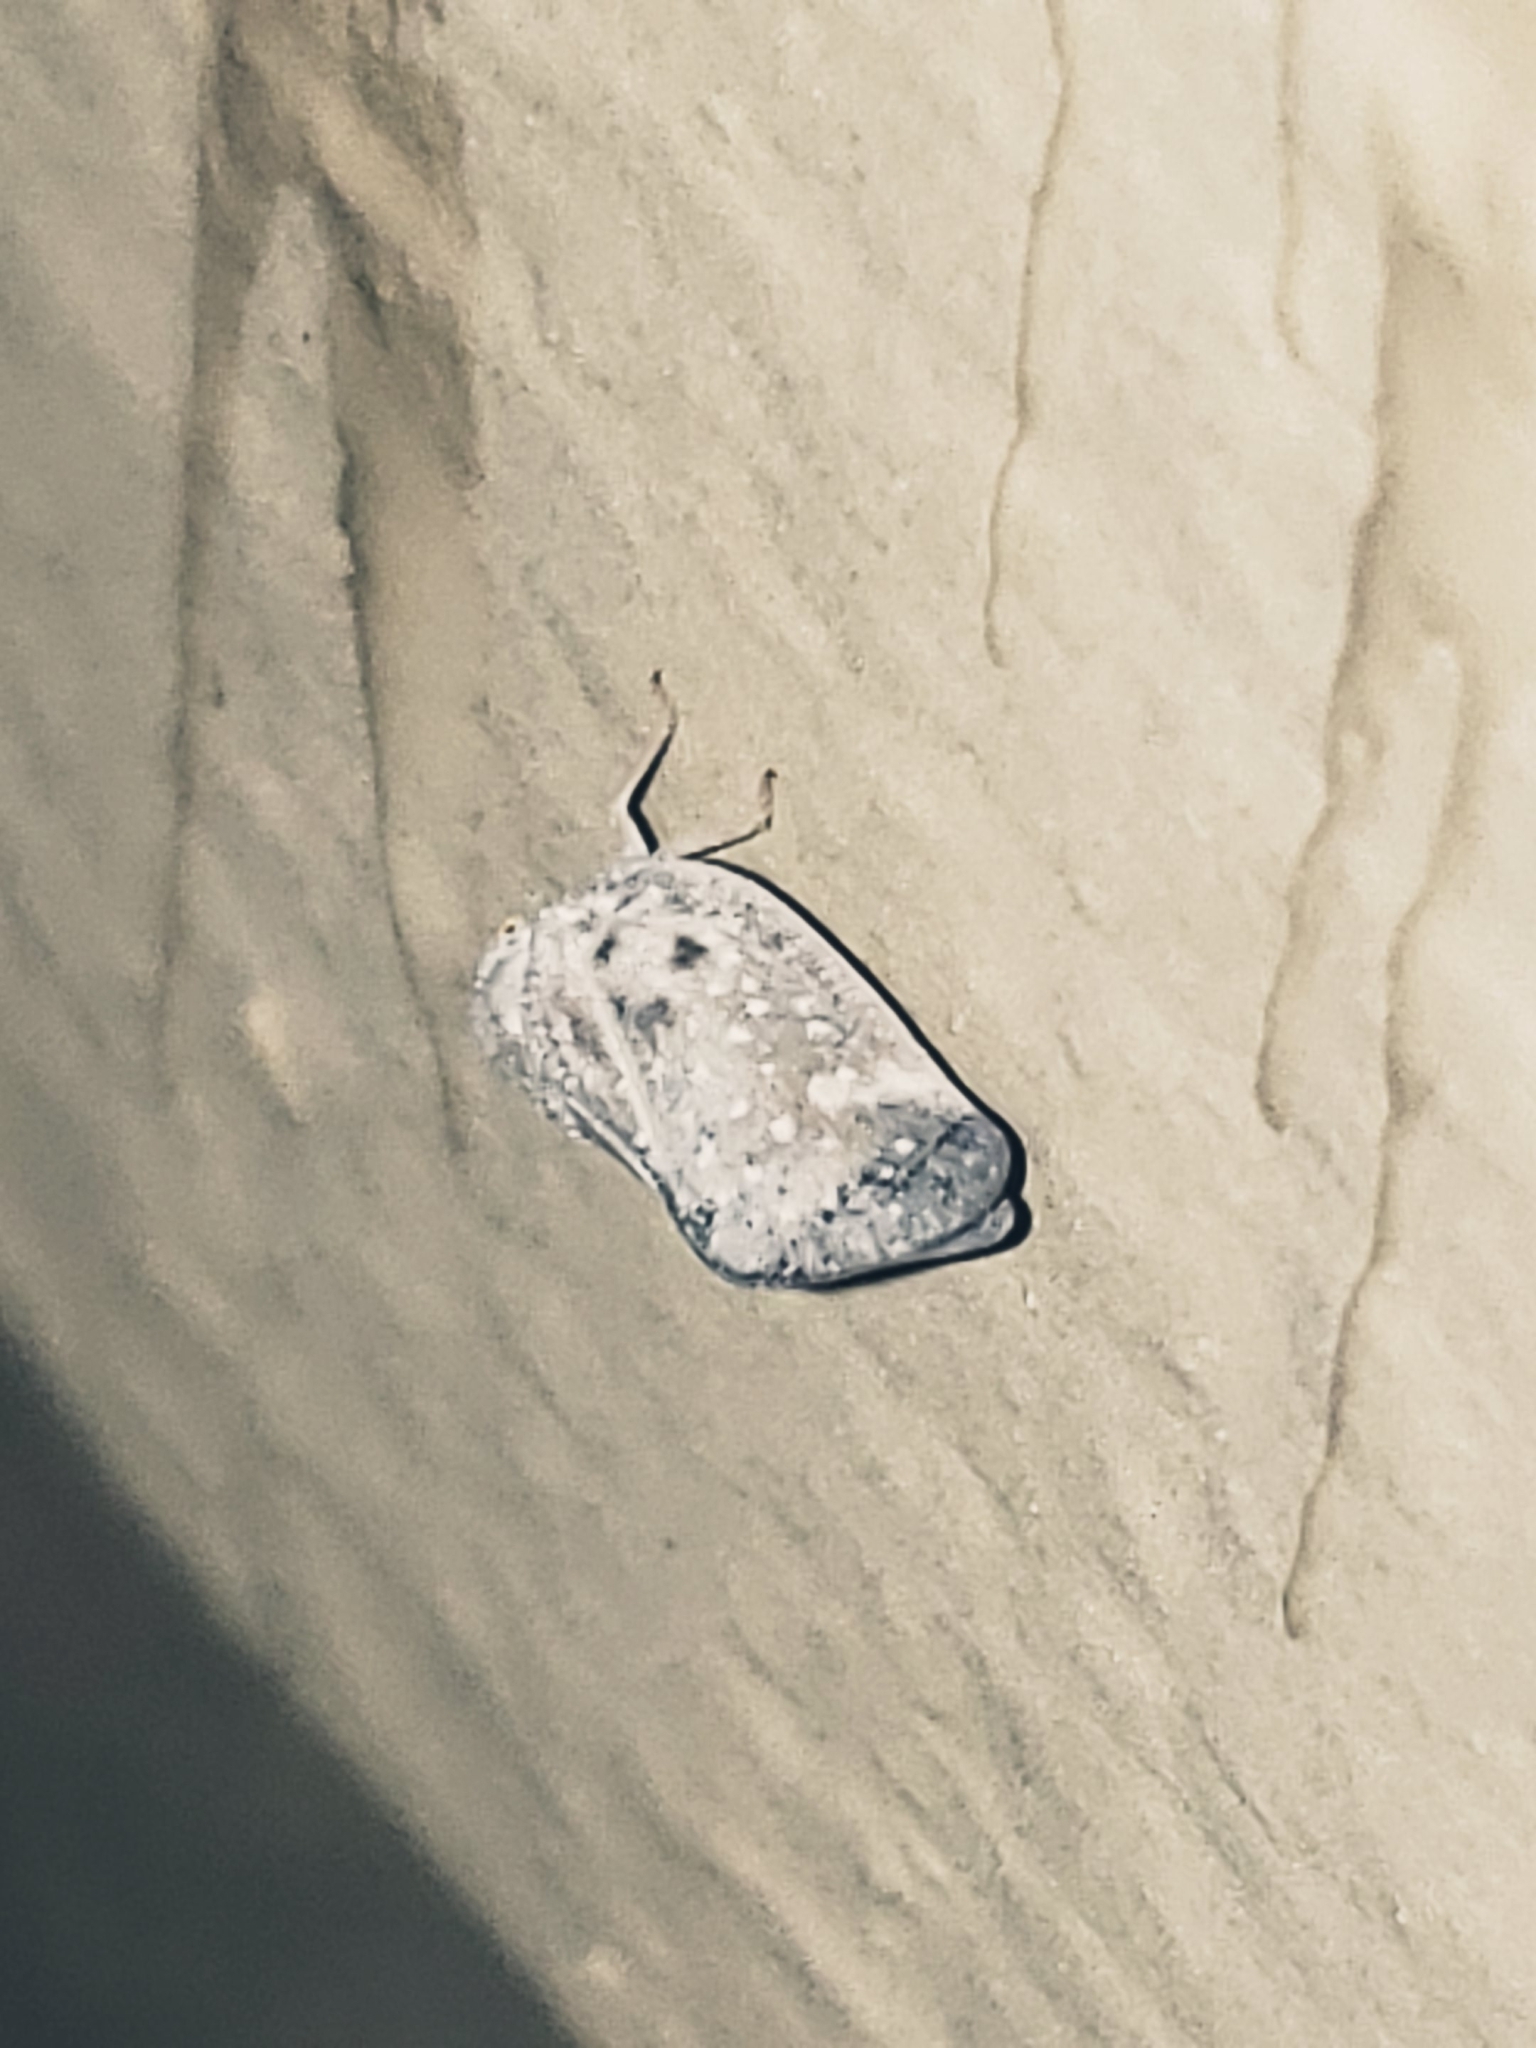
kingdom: Animalia
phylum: Arthropoda
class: Insecta
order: Hemiptera
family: Flatidae
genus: Metcalfa
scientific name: Metcalfa pruinosa
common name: Citrus flatid planthopper
